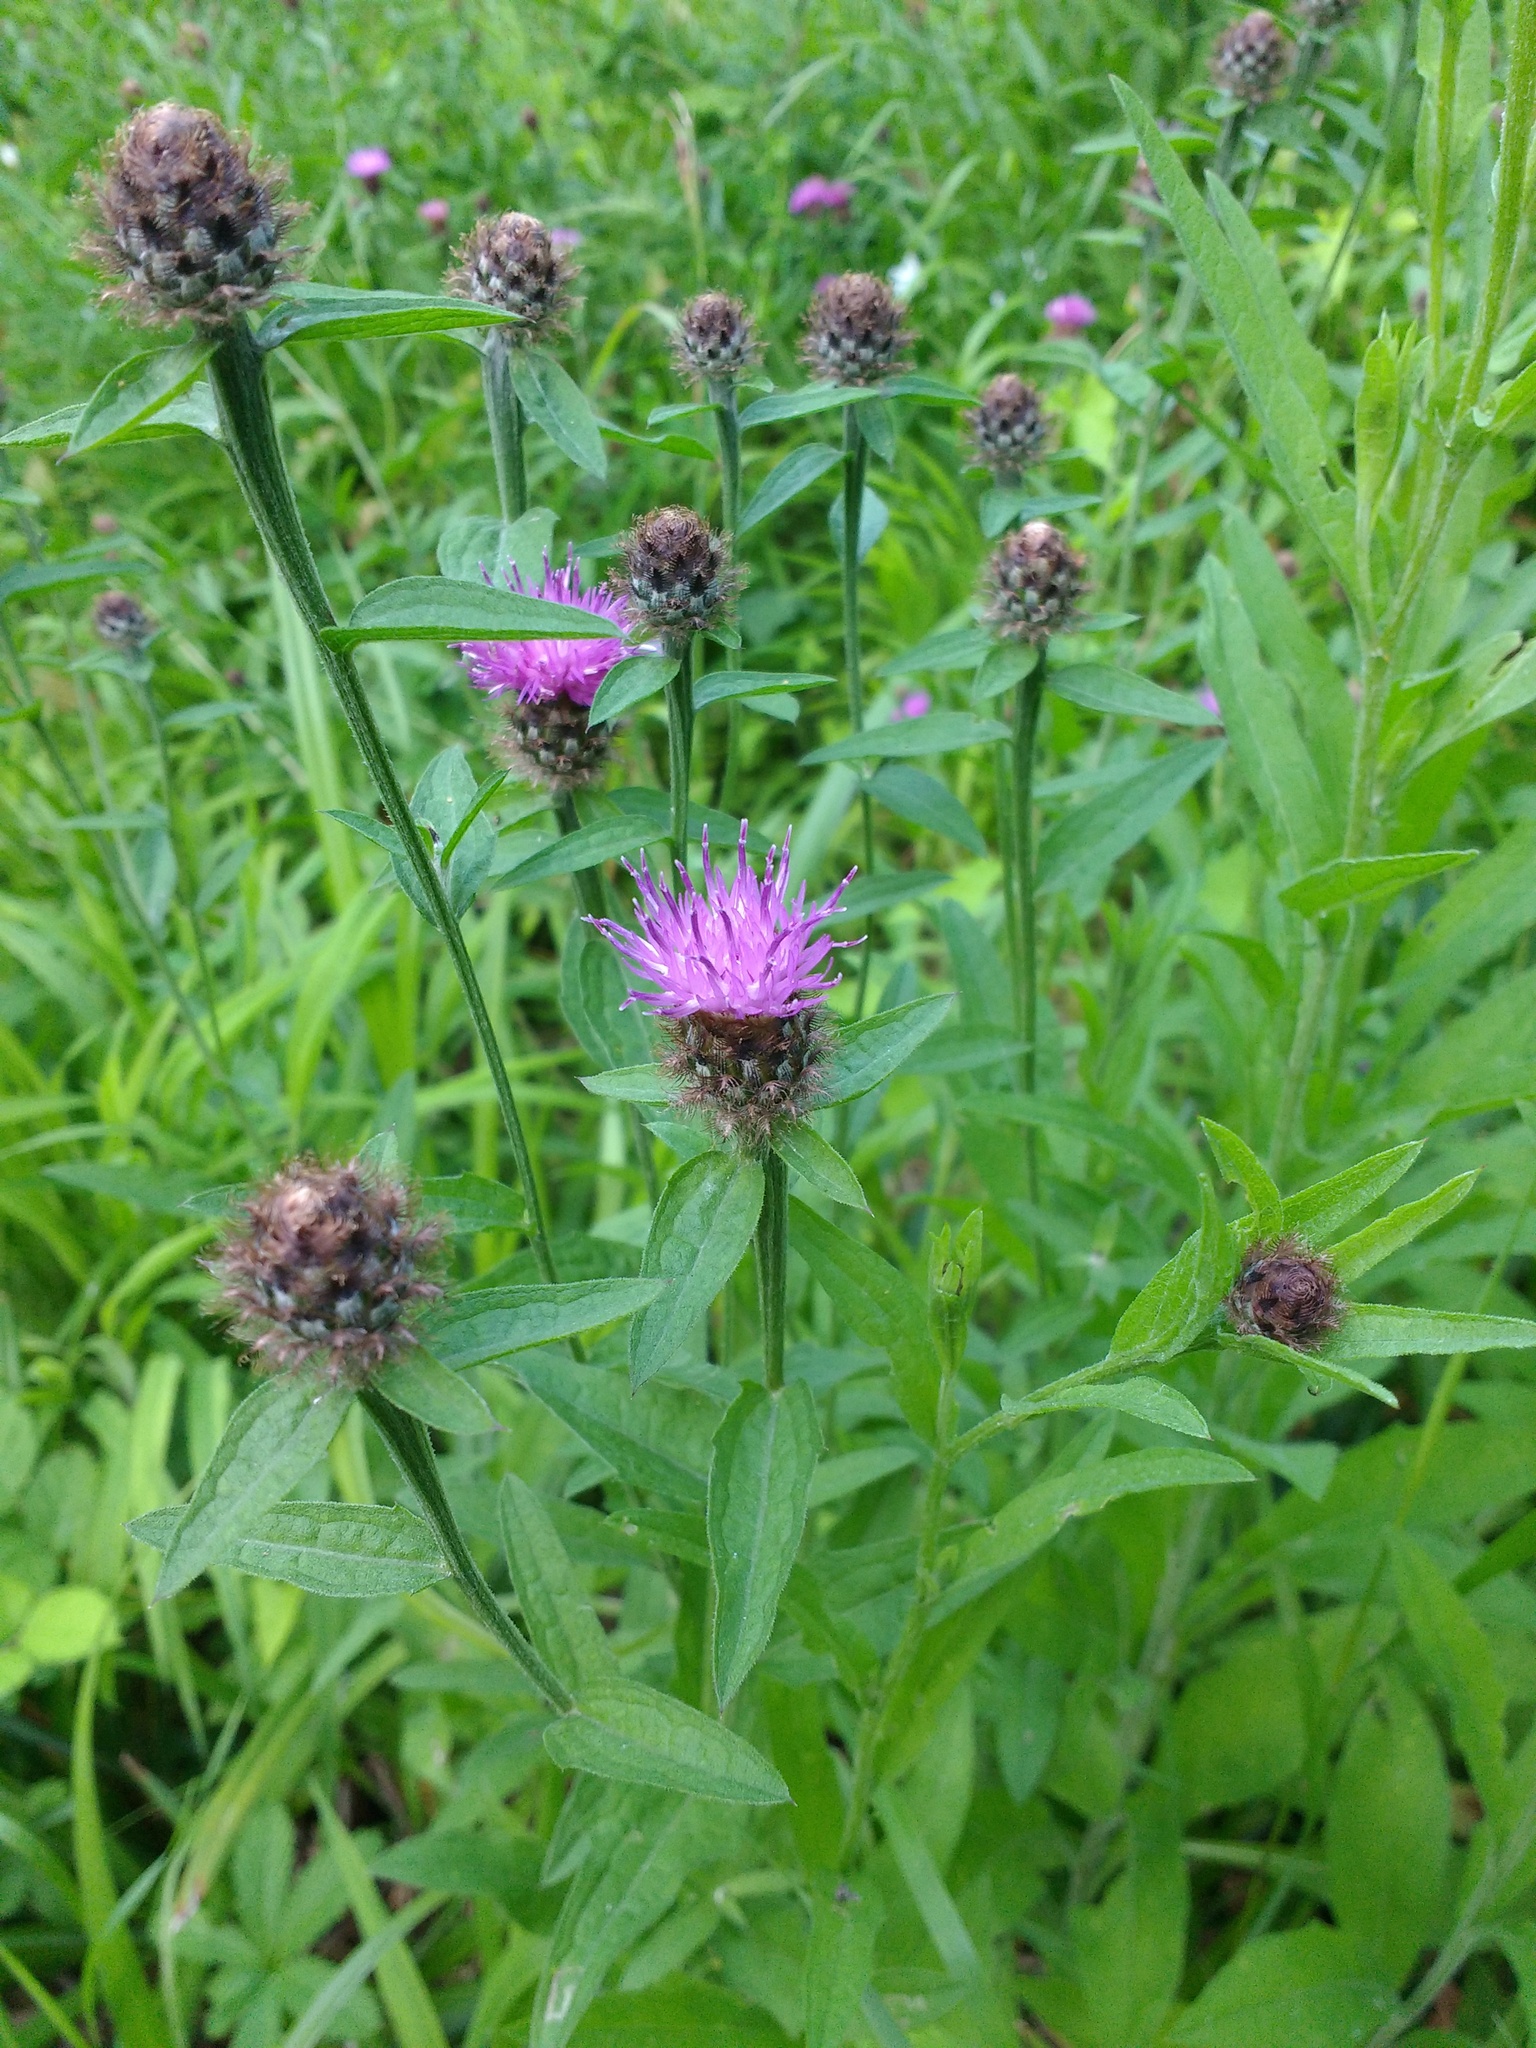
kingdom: Plantae
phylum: Tracheophyta
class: Magnoliopsida
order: Asterales
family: Asteraceae
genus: Centaurea
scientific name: Centaurea nigra
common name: Lesser knapweed
